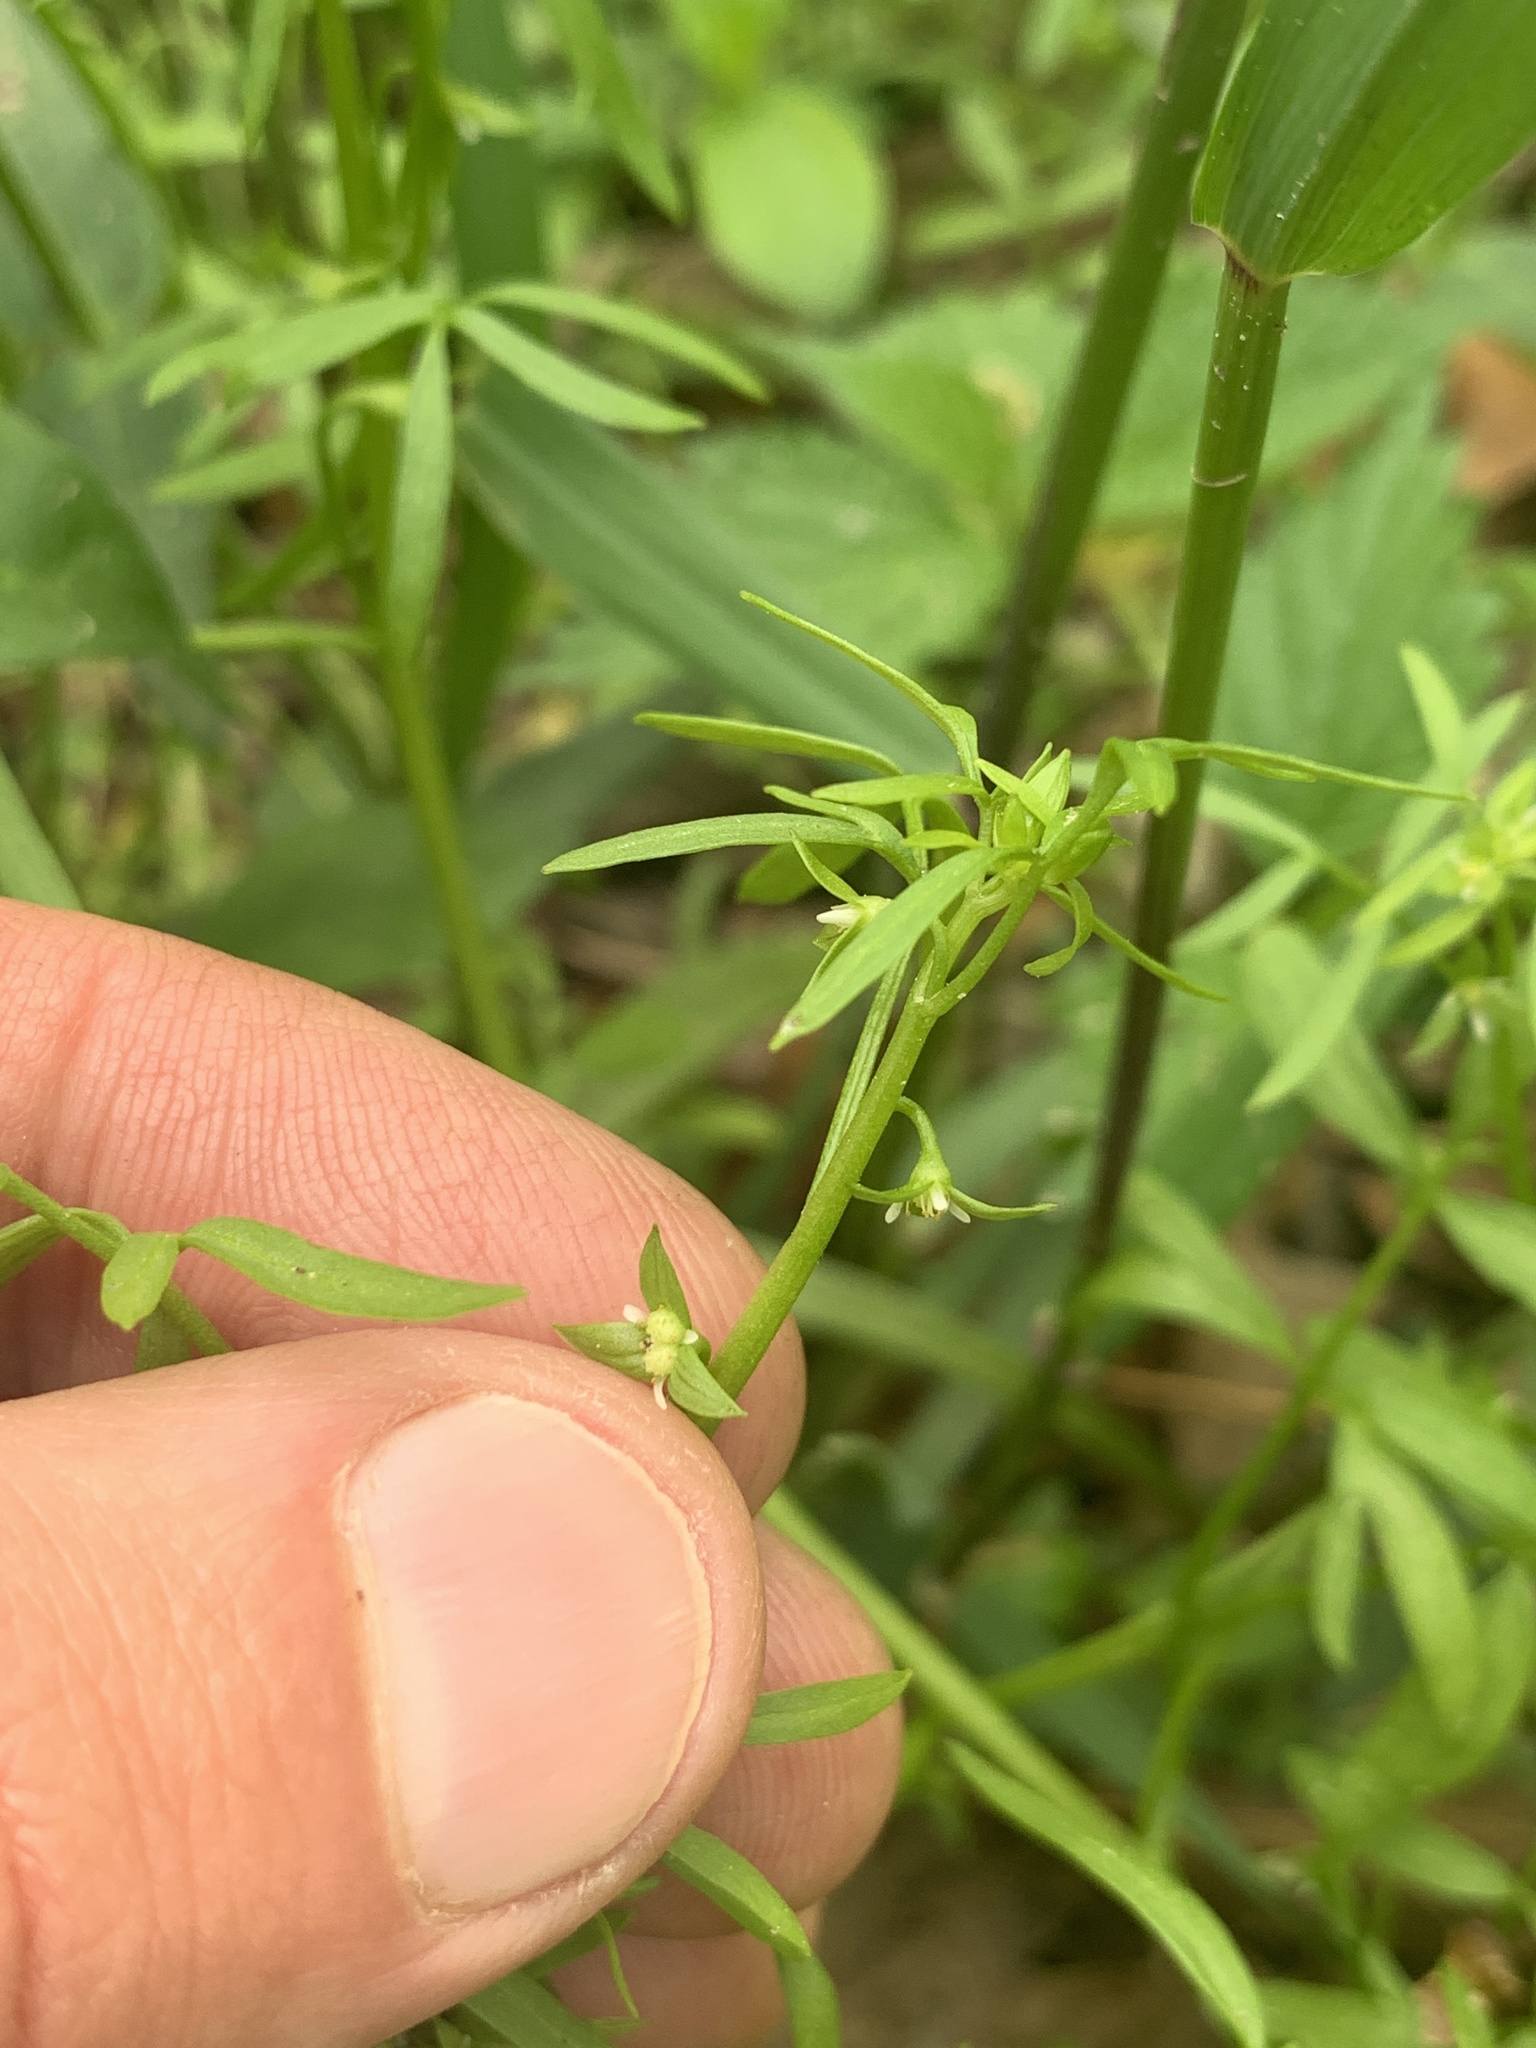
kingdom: Plantae
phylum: Tracheophyta
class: Magnoliopsida
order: Brassicales
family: Limnanthaceae
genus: Floerkea
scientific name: Floerkea proserpinacoides
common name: False mermaid
